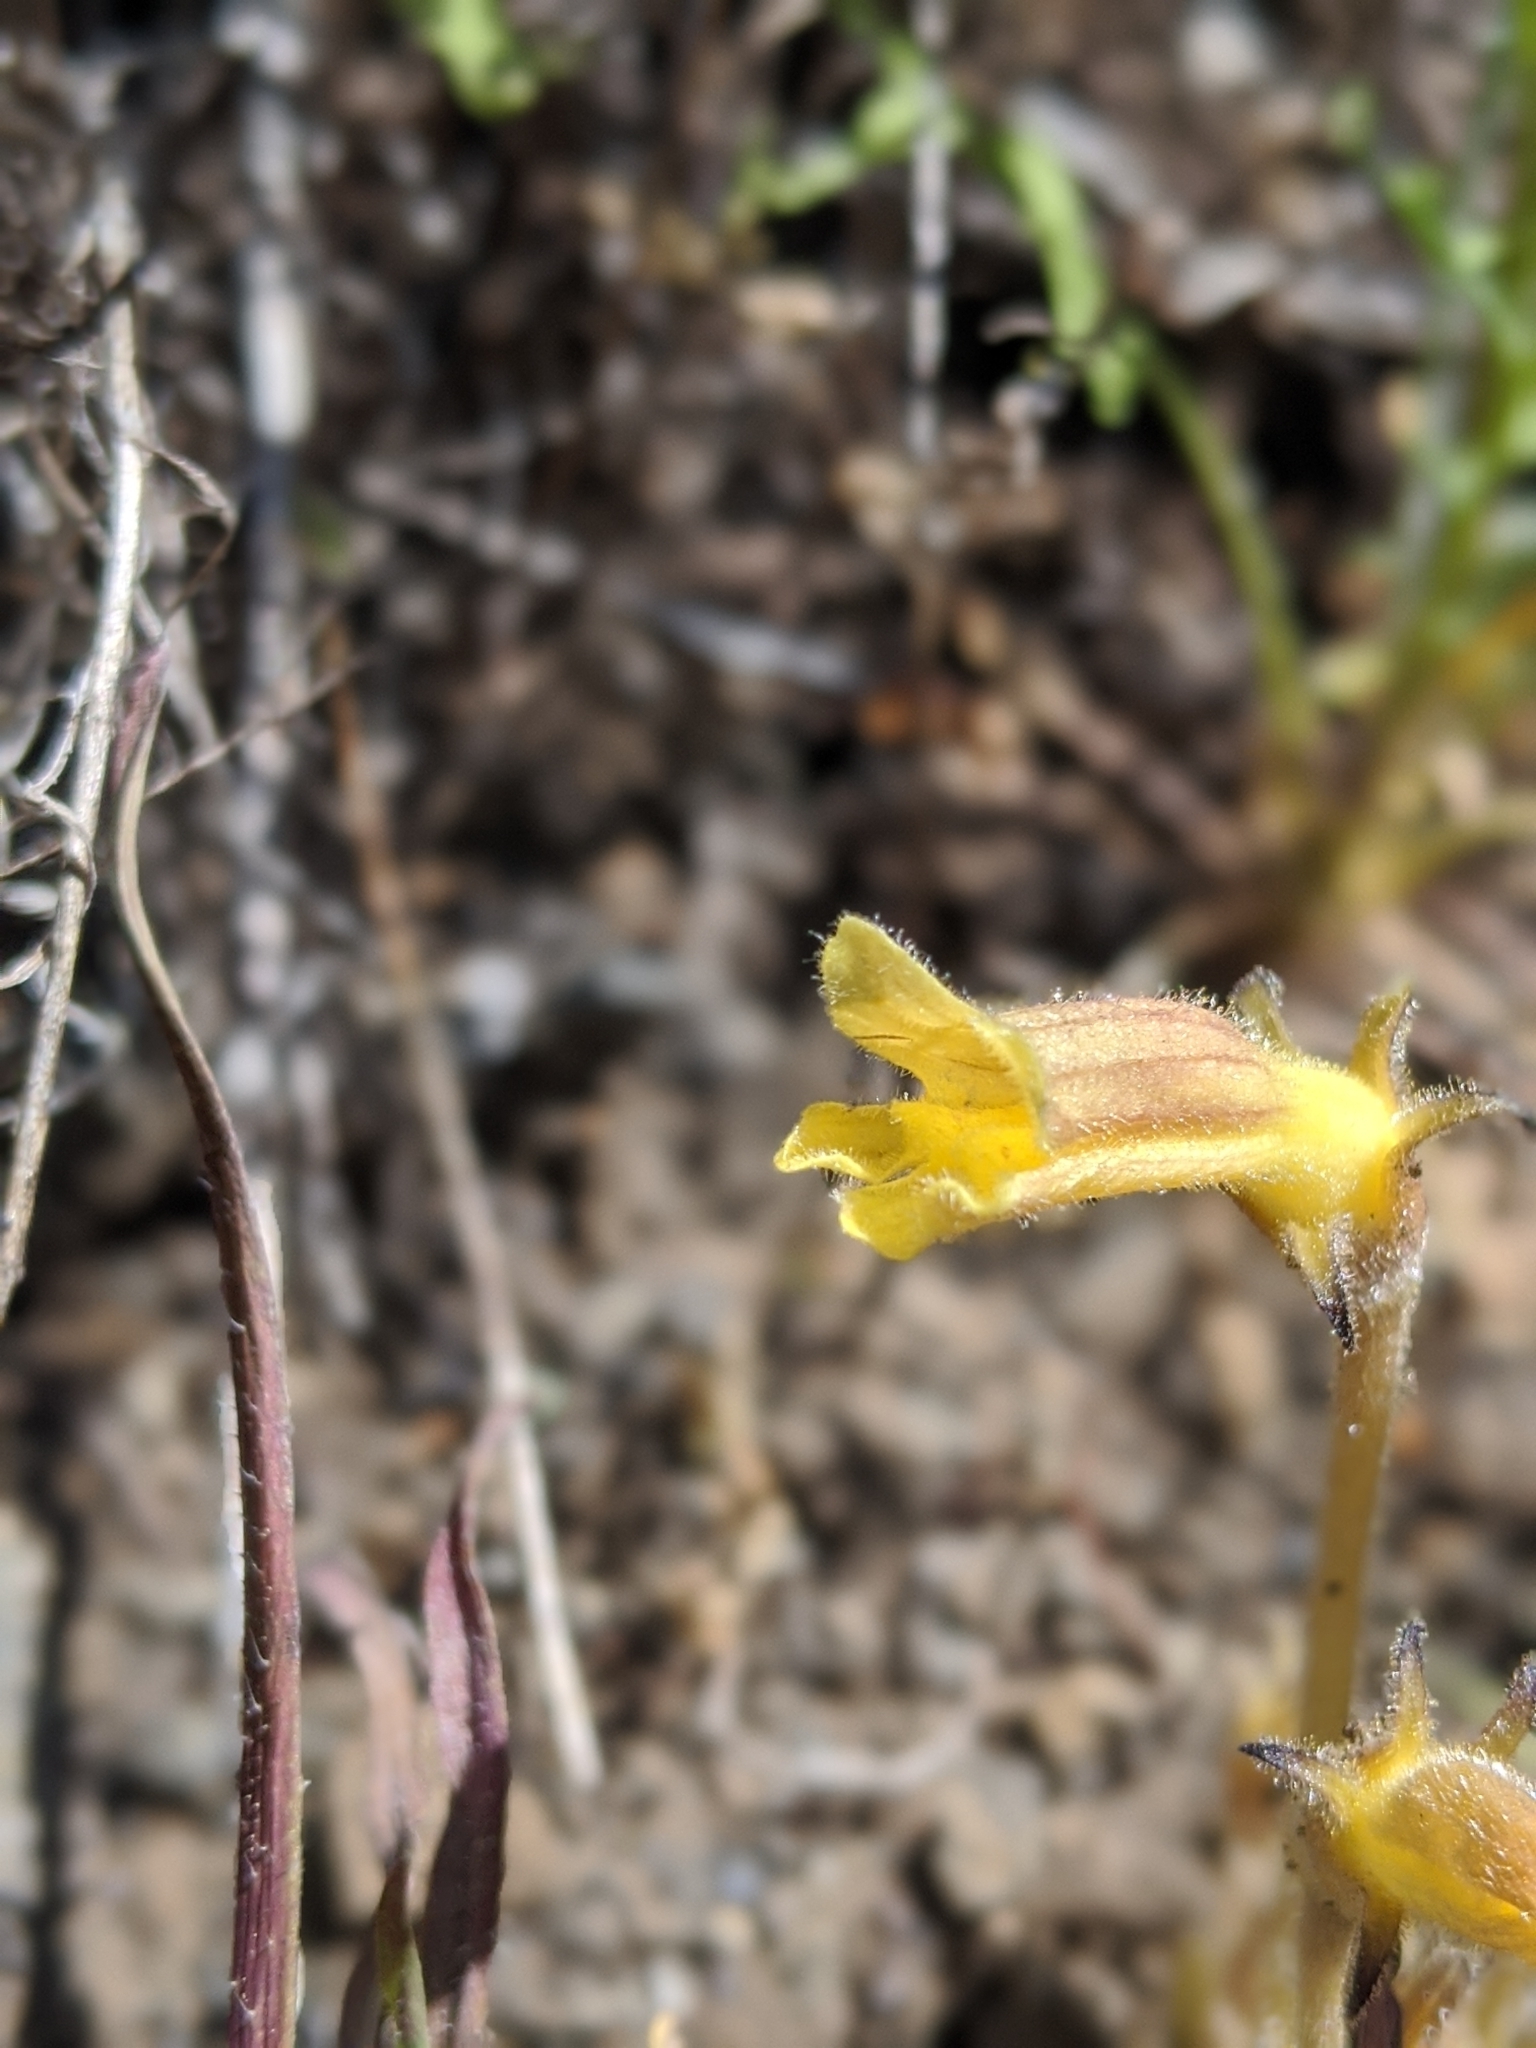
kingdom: Plantae
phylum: Tracheophyta
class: Magnoliopsida
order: Lamiales
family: Orobanchaceae
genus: Aphyllon
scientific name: Aphyllon franciscanum
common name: San francisco broomrape
